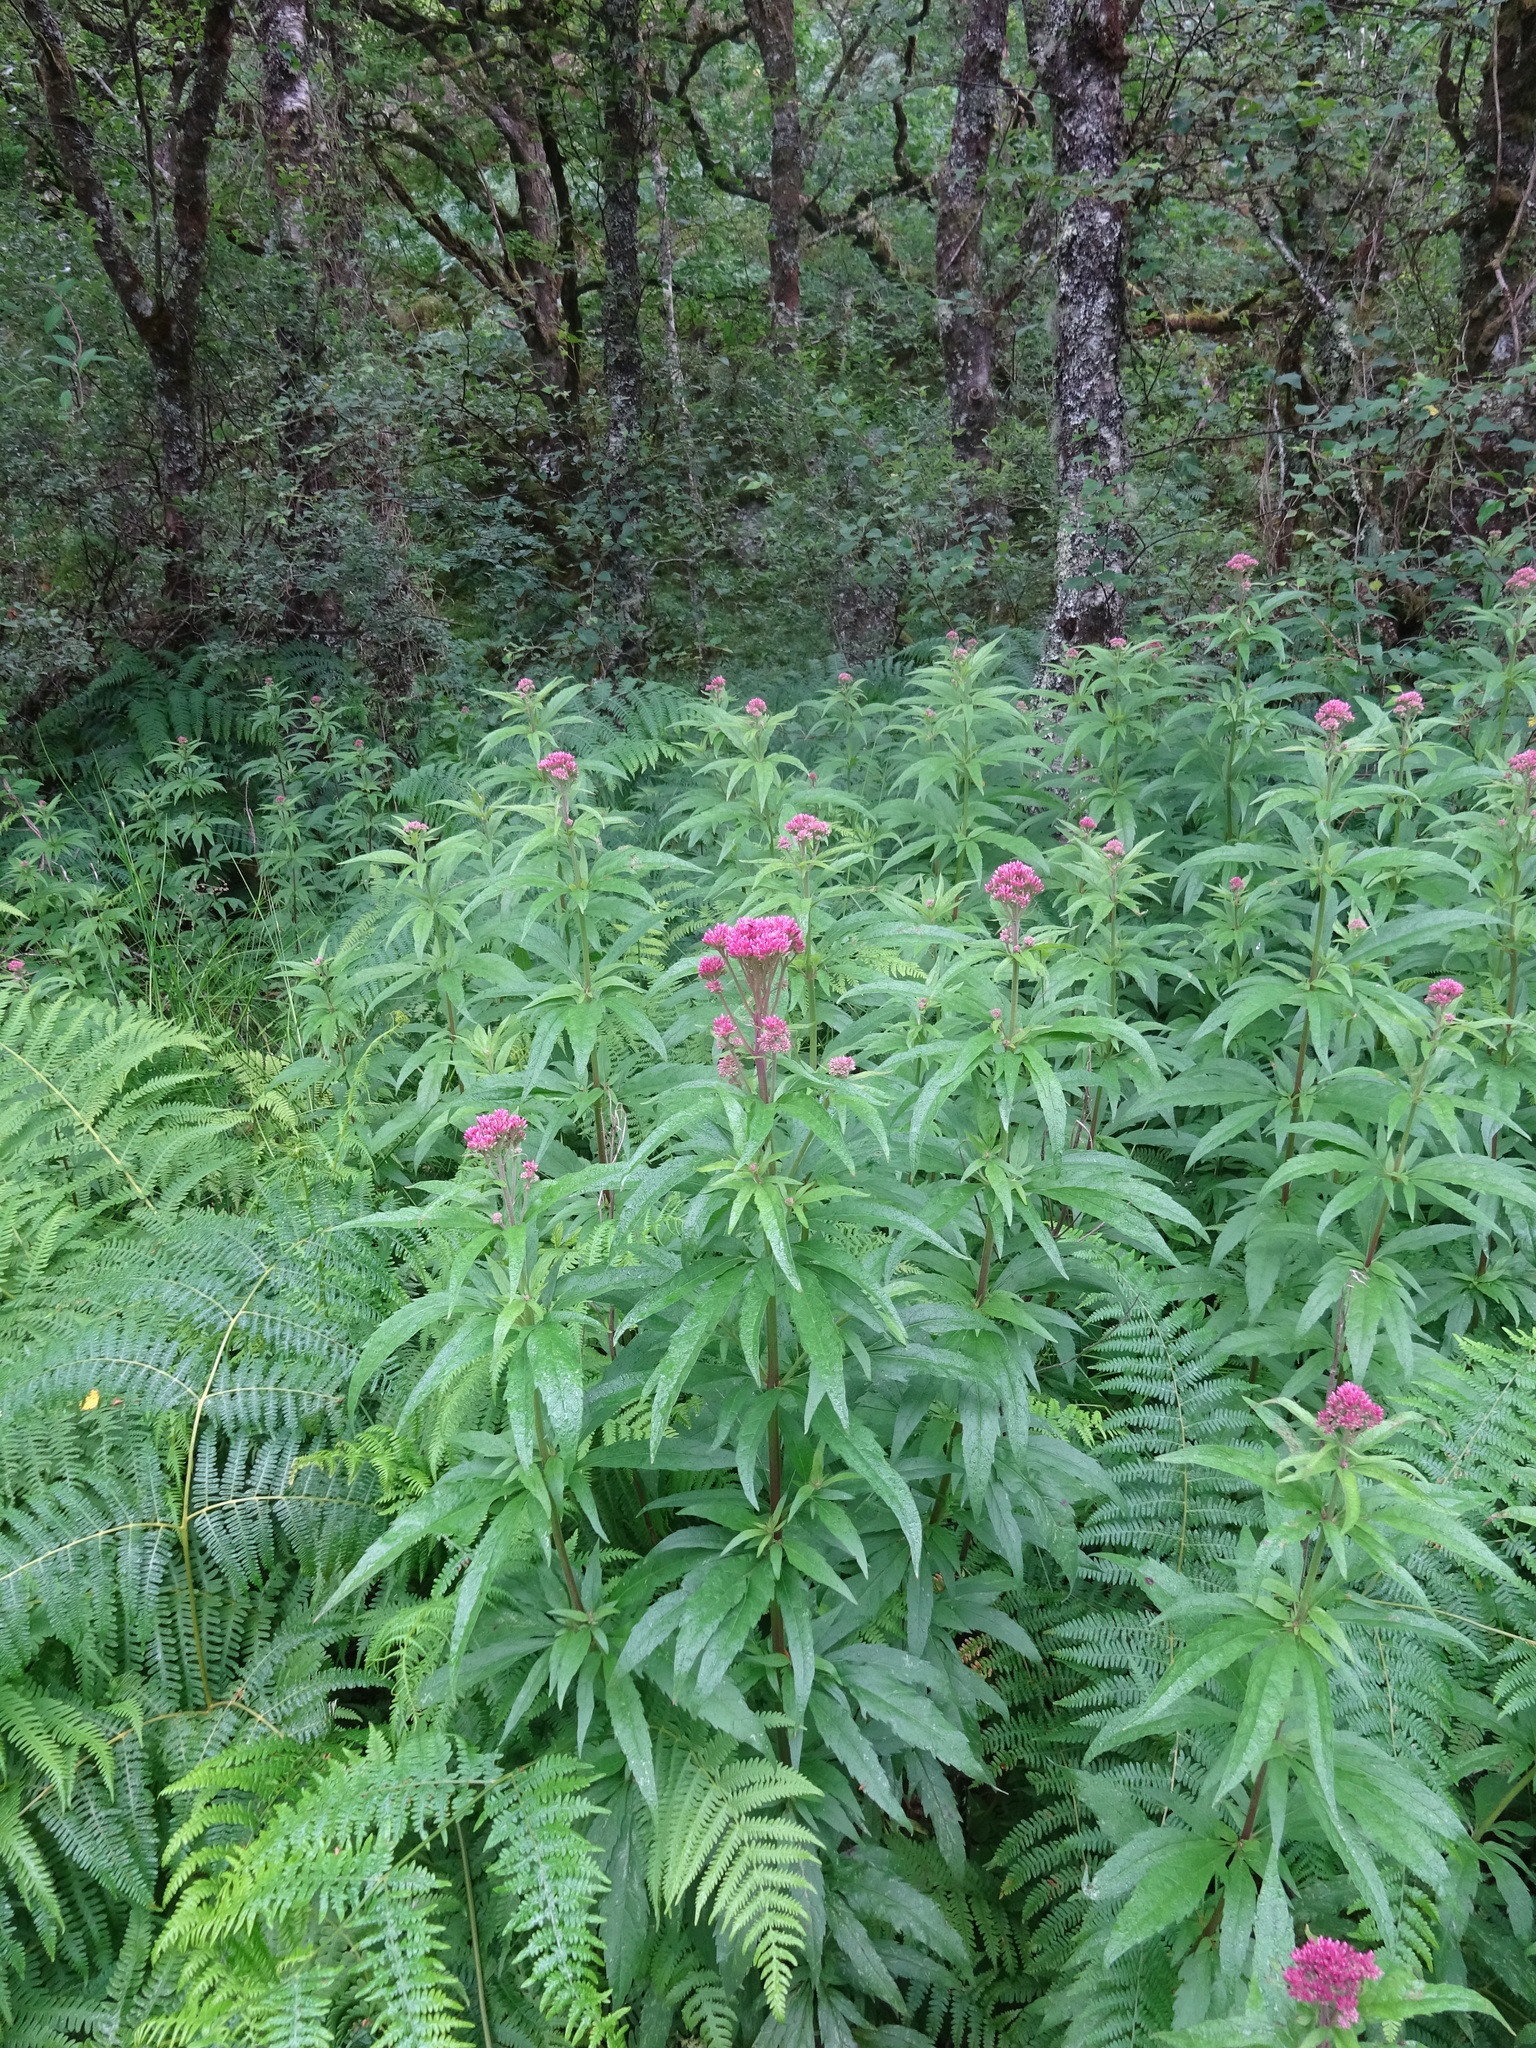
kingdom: Plantae
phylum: Tracheophyta
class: Magnoliopsida
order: Asterales
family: Asteraceae
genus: Eupatorium
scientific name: Eupatorium cannabinum
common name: Hemp-agrimony
